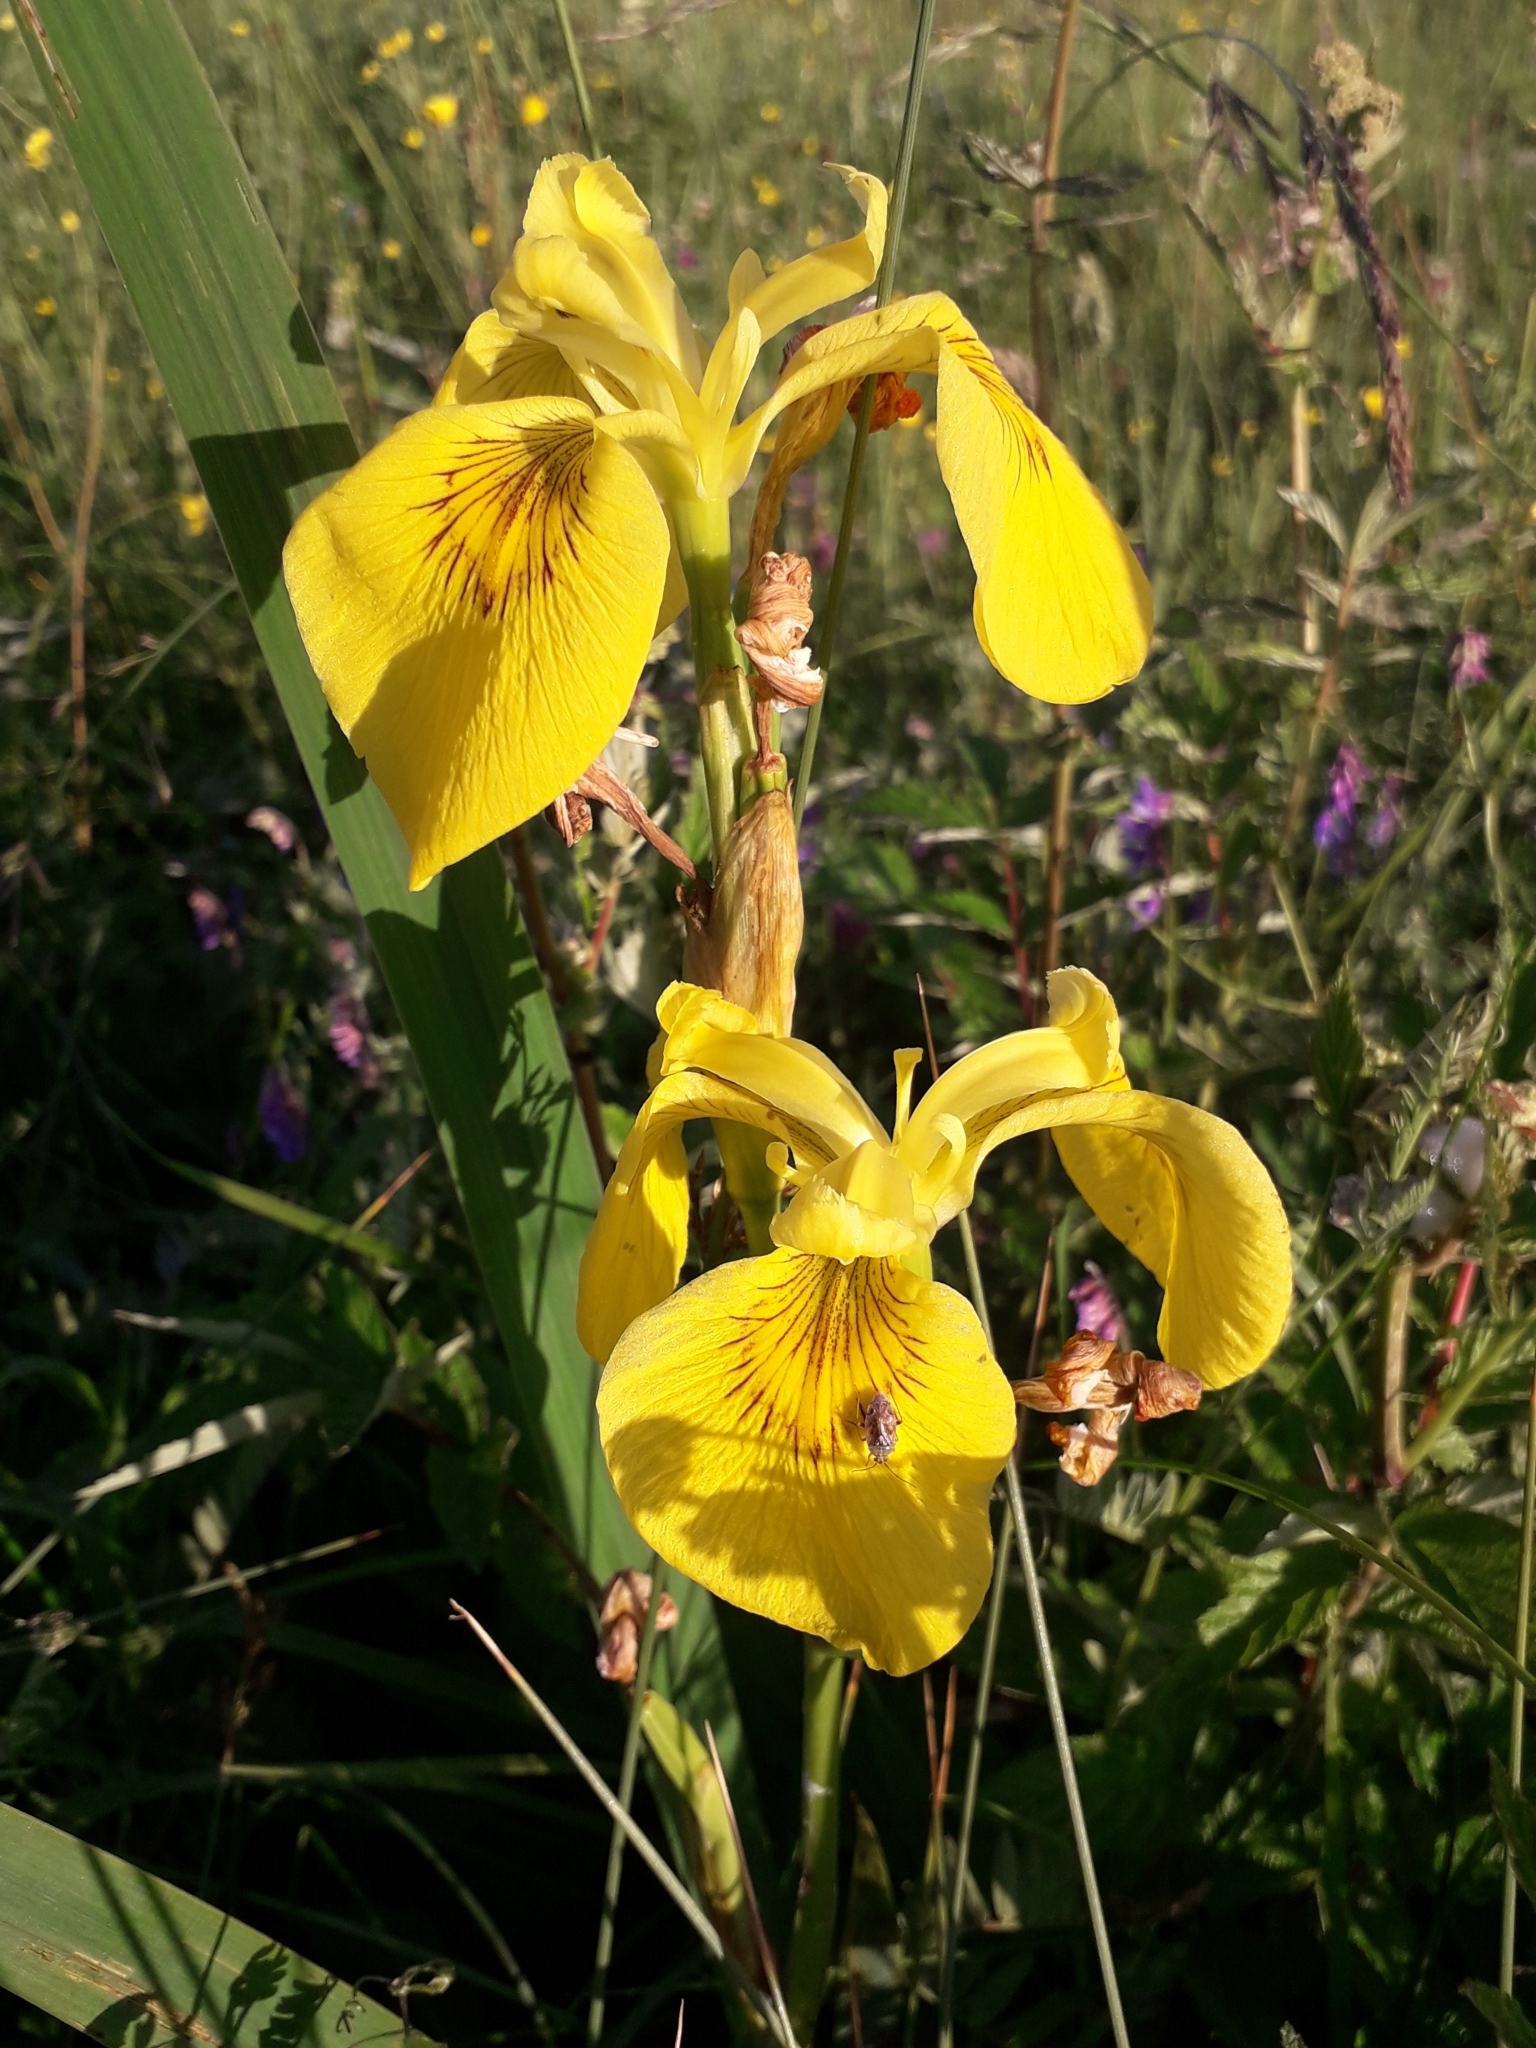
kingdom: Plantae
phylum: Tracheophyta
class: Liliopsida
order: Asparagales
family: Iridaceae
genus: Iris
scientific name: Iris pseudacorus
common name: Yellow flag
